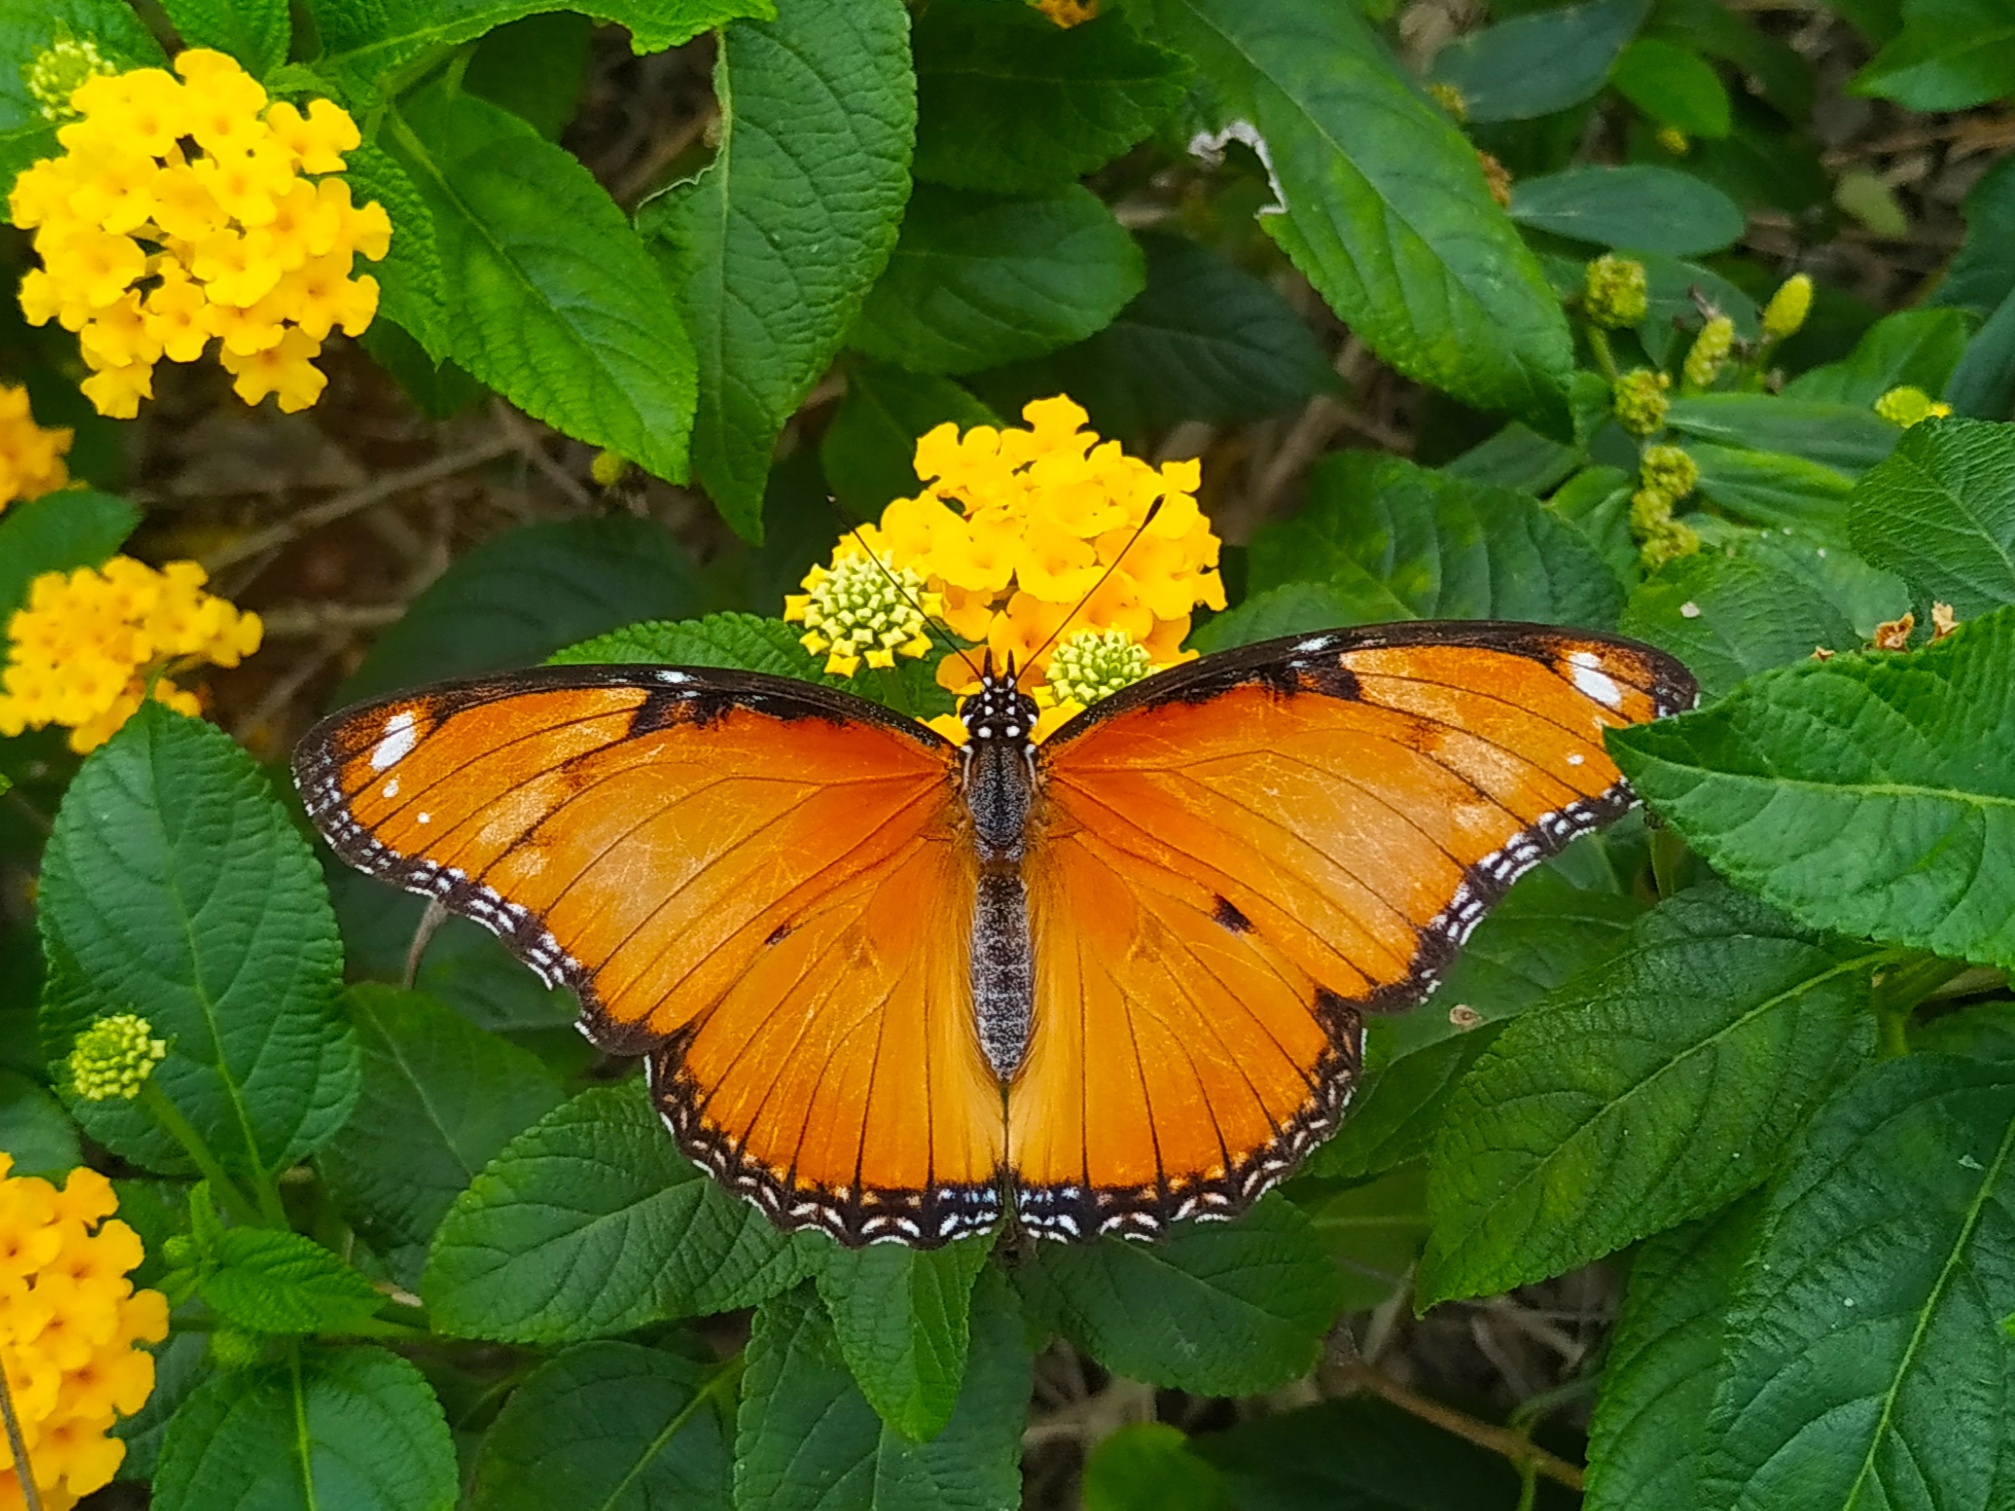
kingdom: Animalia
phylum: Arthropoda
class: Insecta
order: Lepidoptera
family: Nymphalidae
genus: Hypolimnas
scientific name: Hypolimnas misippus
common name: False plain tiger
